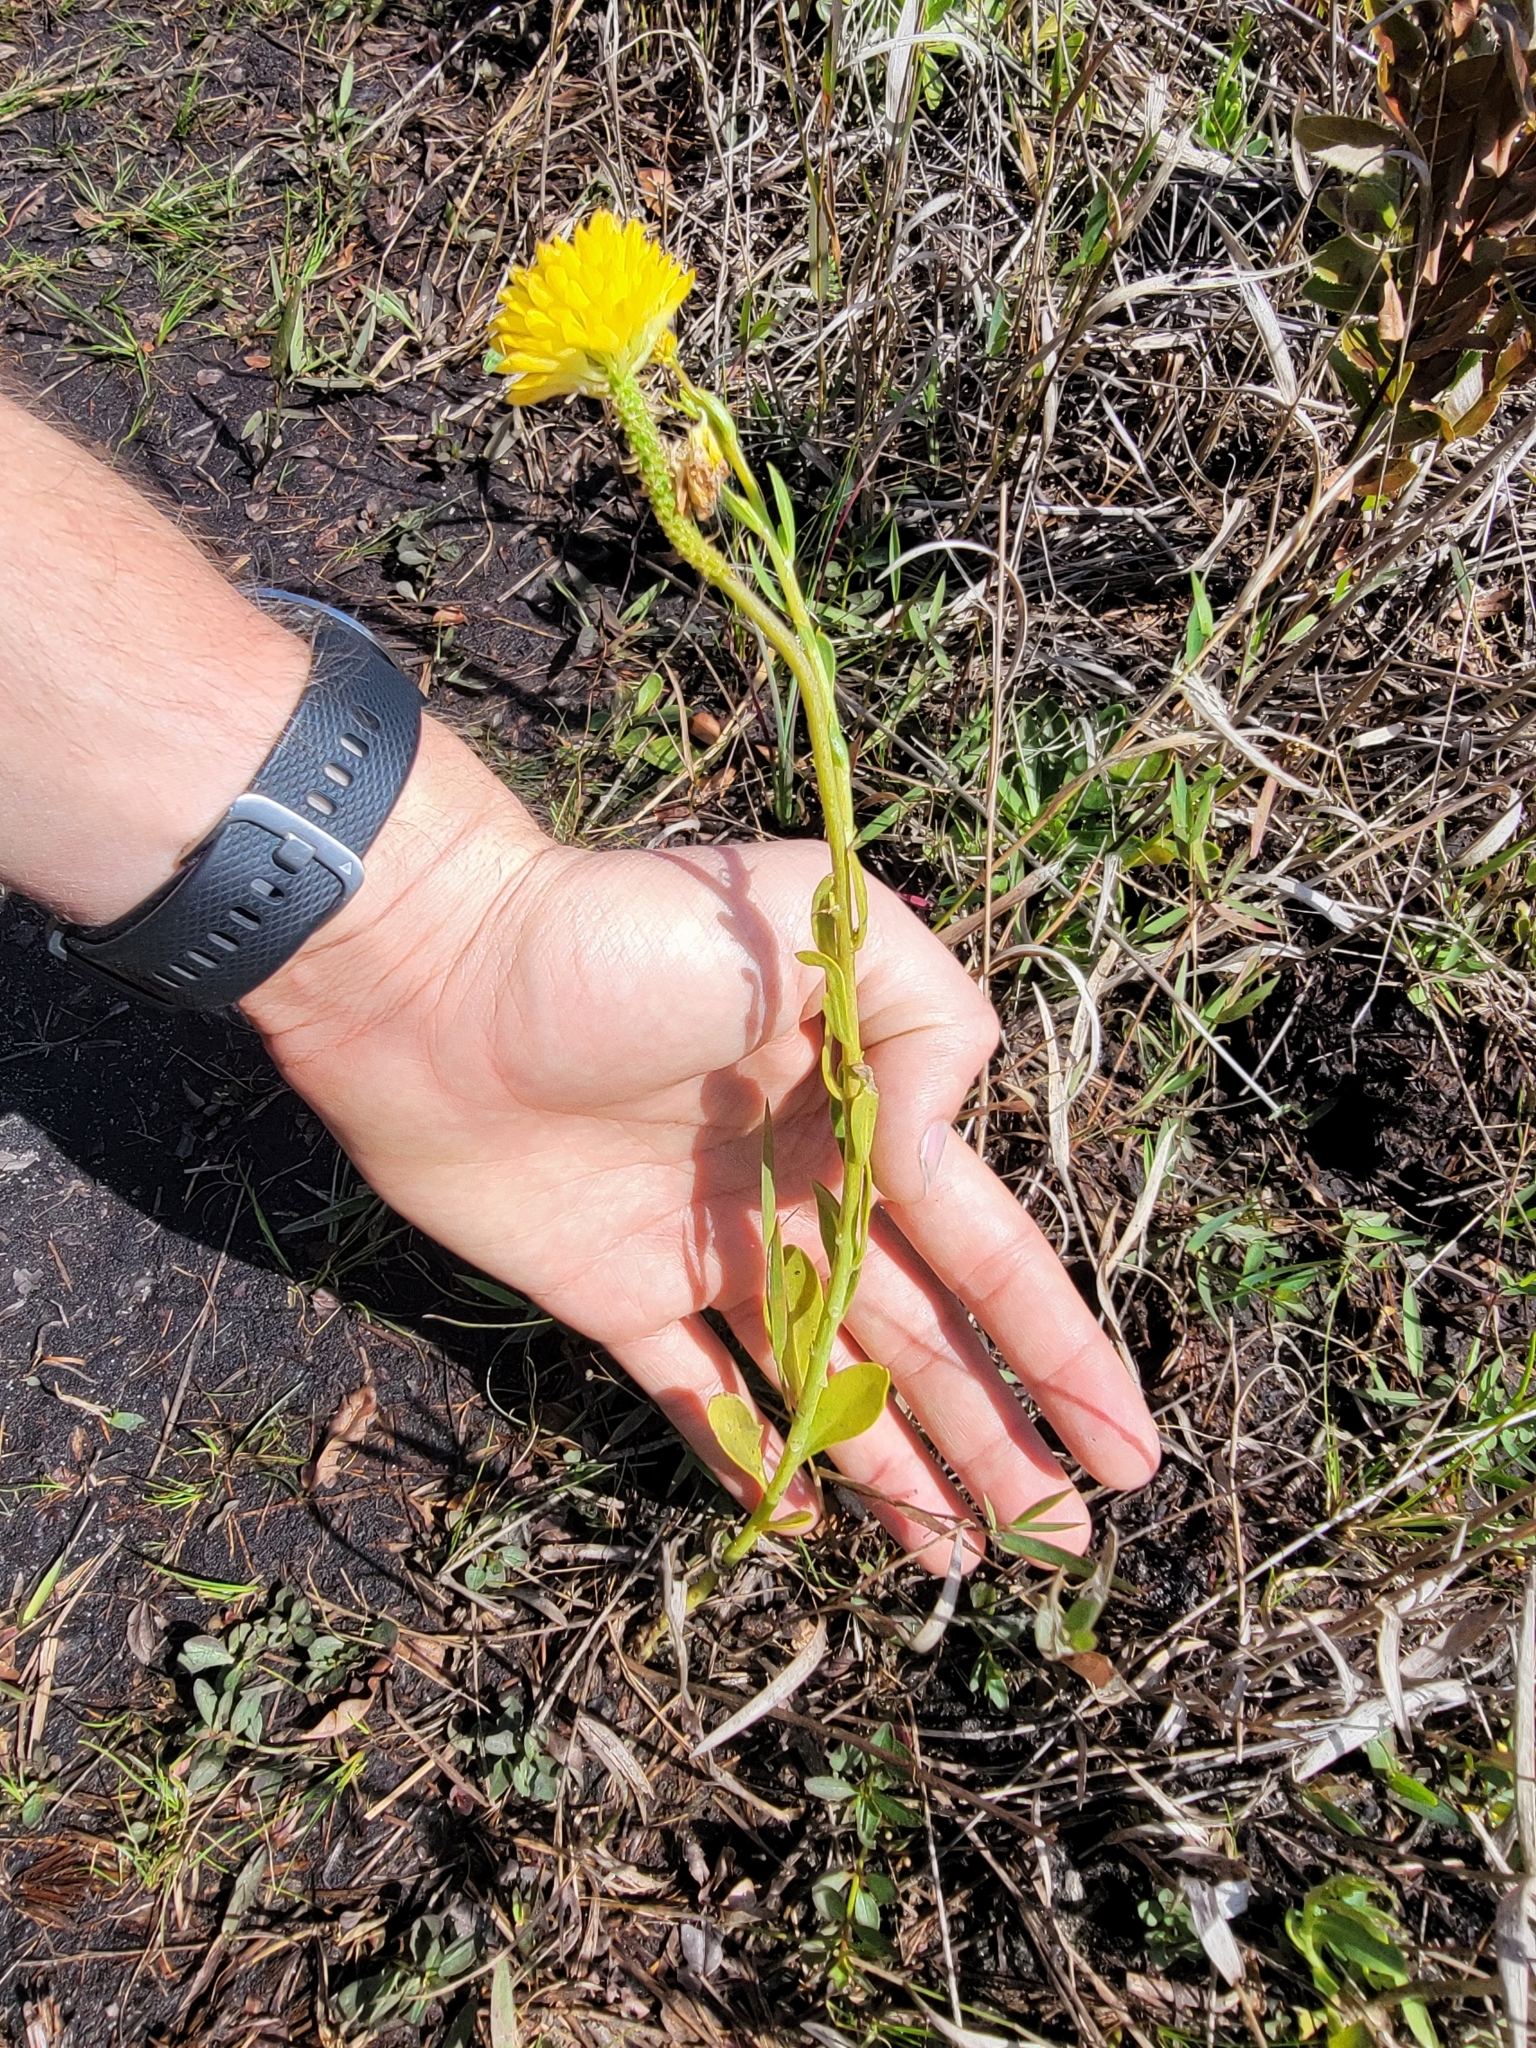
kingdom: Plantae
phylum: Tracheophyta
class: Magnoliopsida
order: Fabales
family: Polygalaceae
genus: Polygala
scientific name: Polygala rugelii
